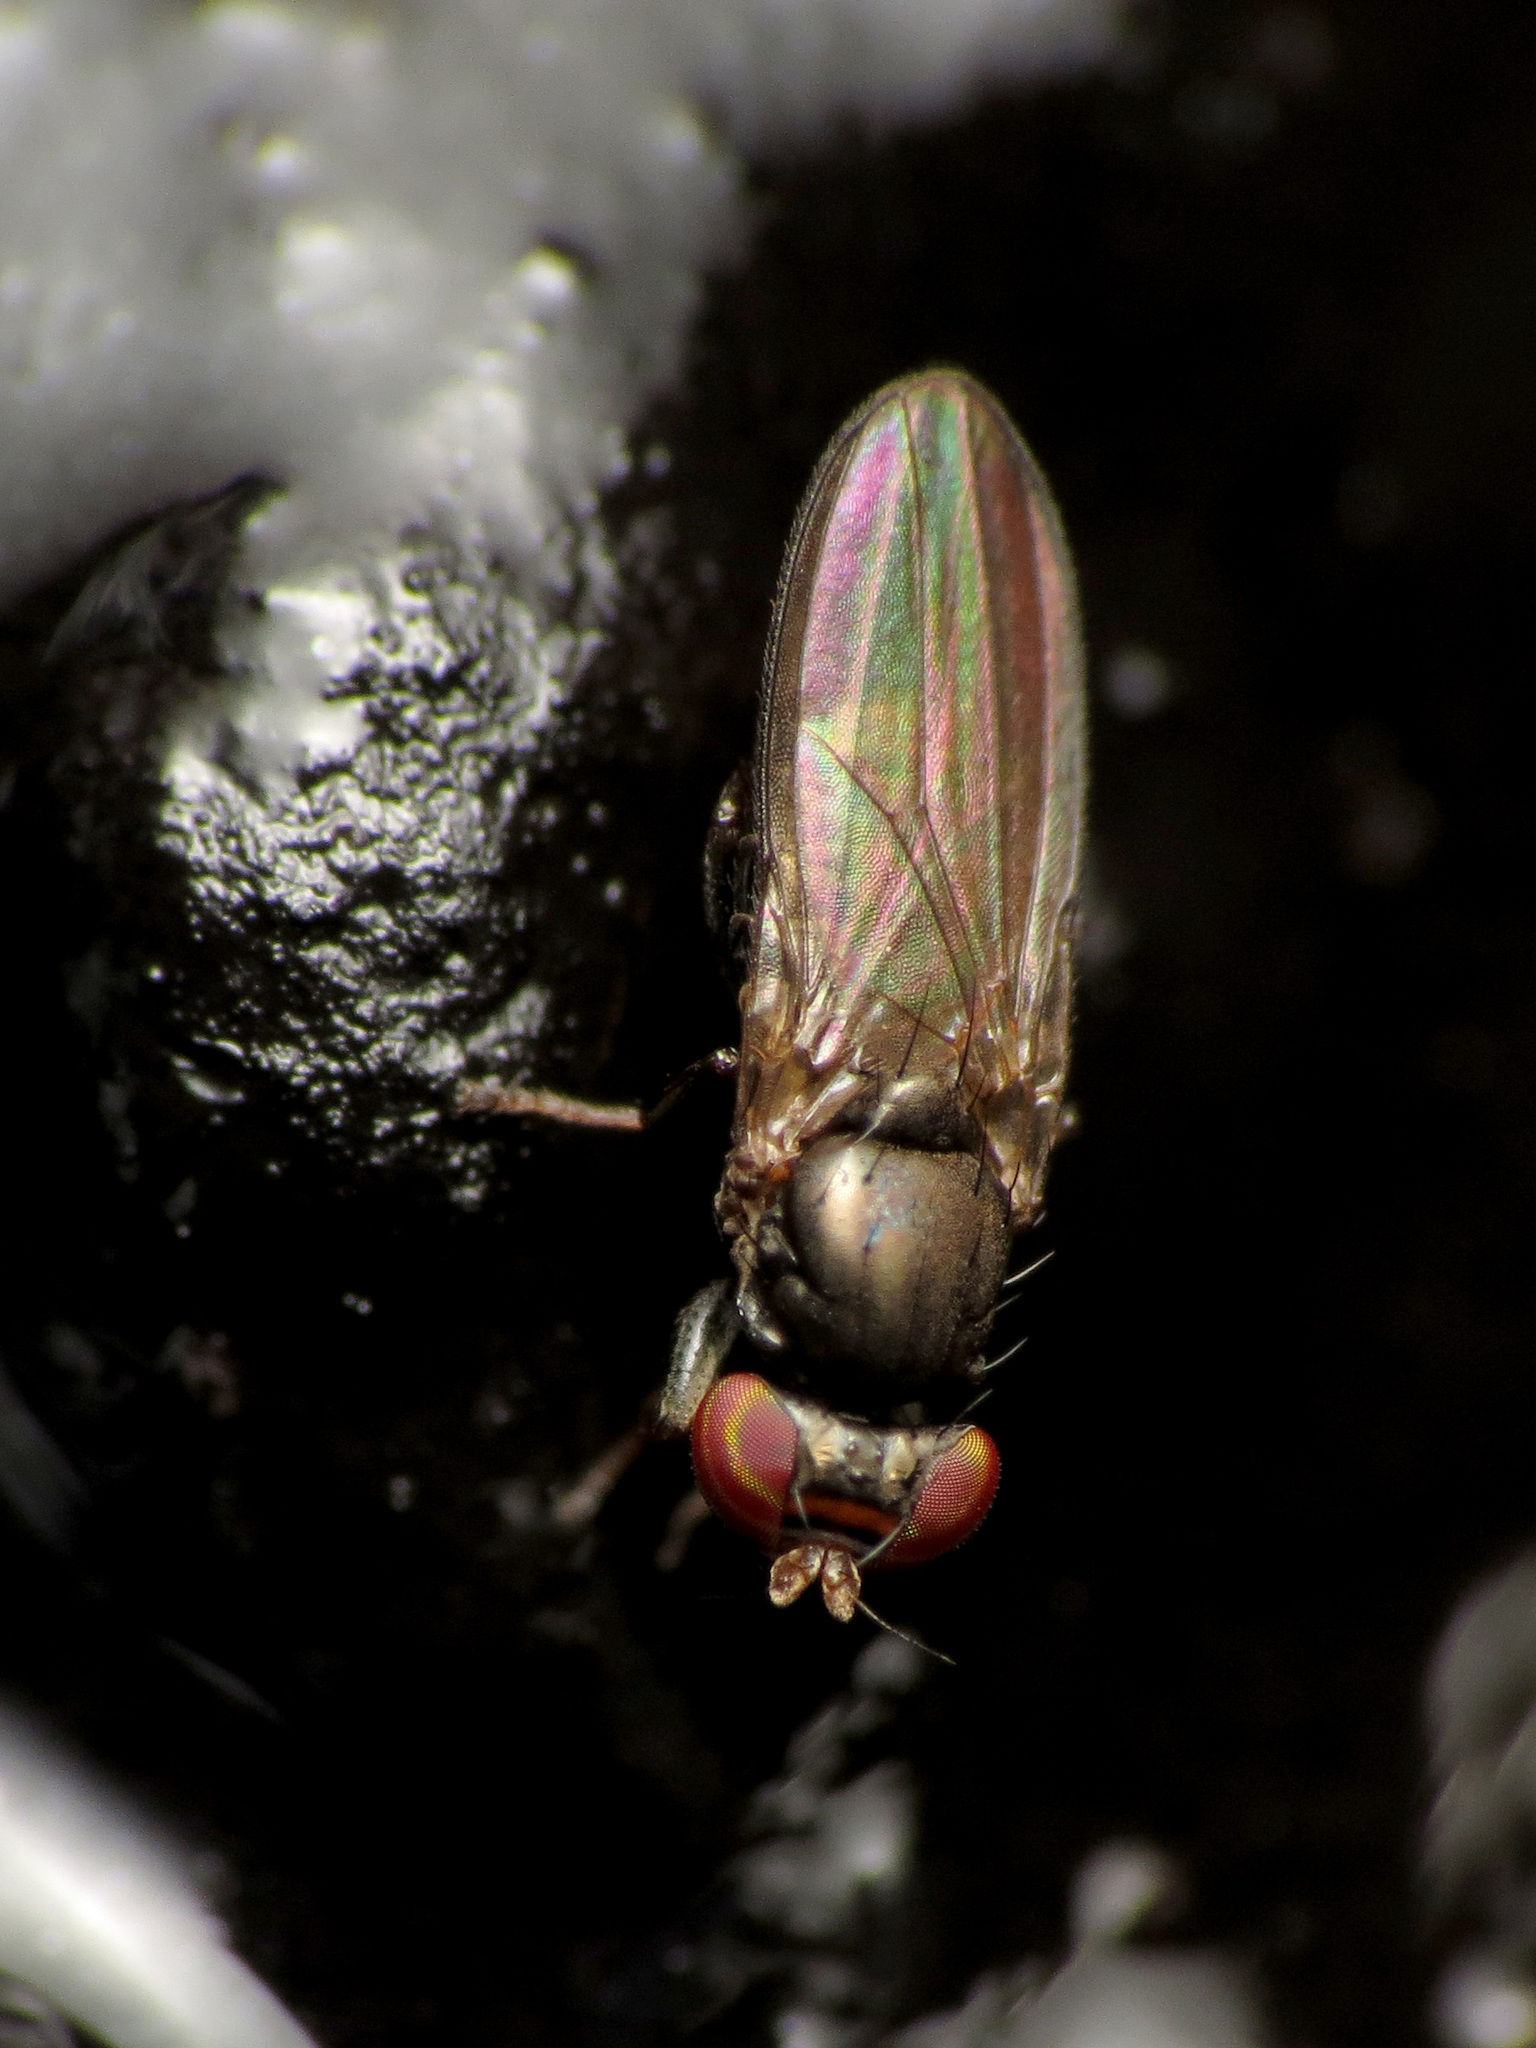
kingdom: Animalia
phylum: Arthropoda
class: Insecta
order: Diptera
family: Aulacigastridae
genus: Aulacigaster
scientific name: Aulacigaster neoleucopeza
